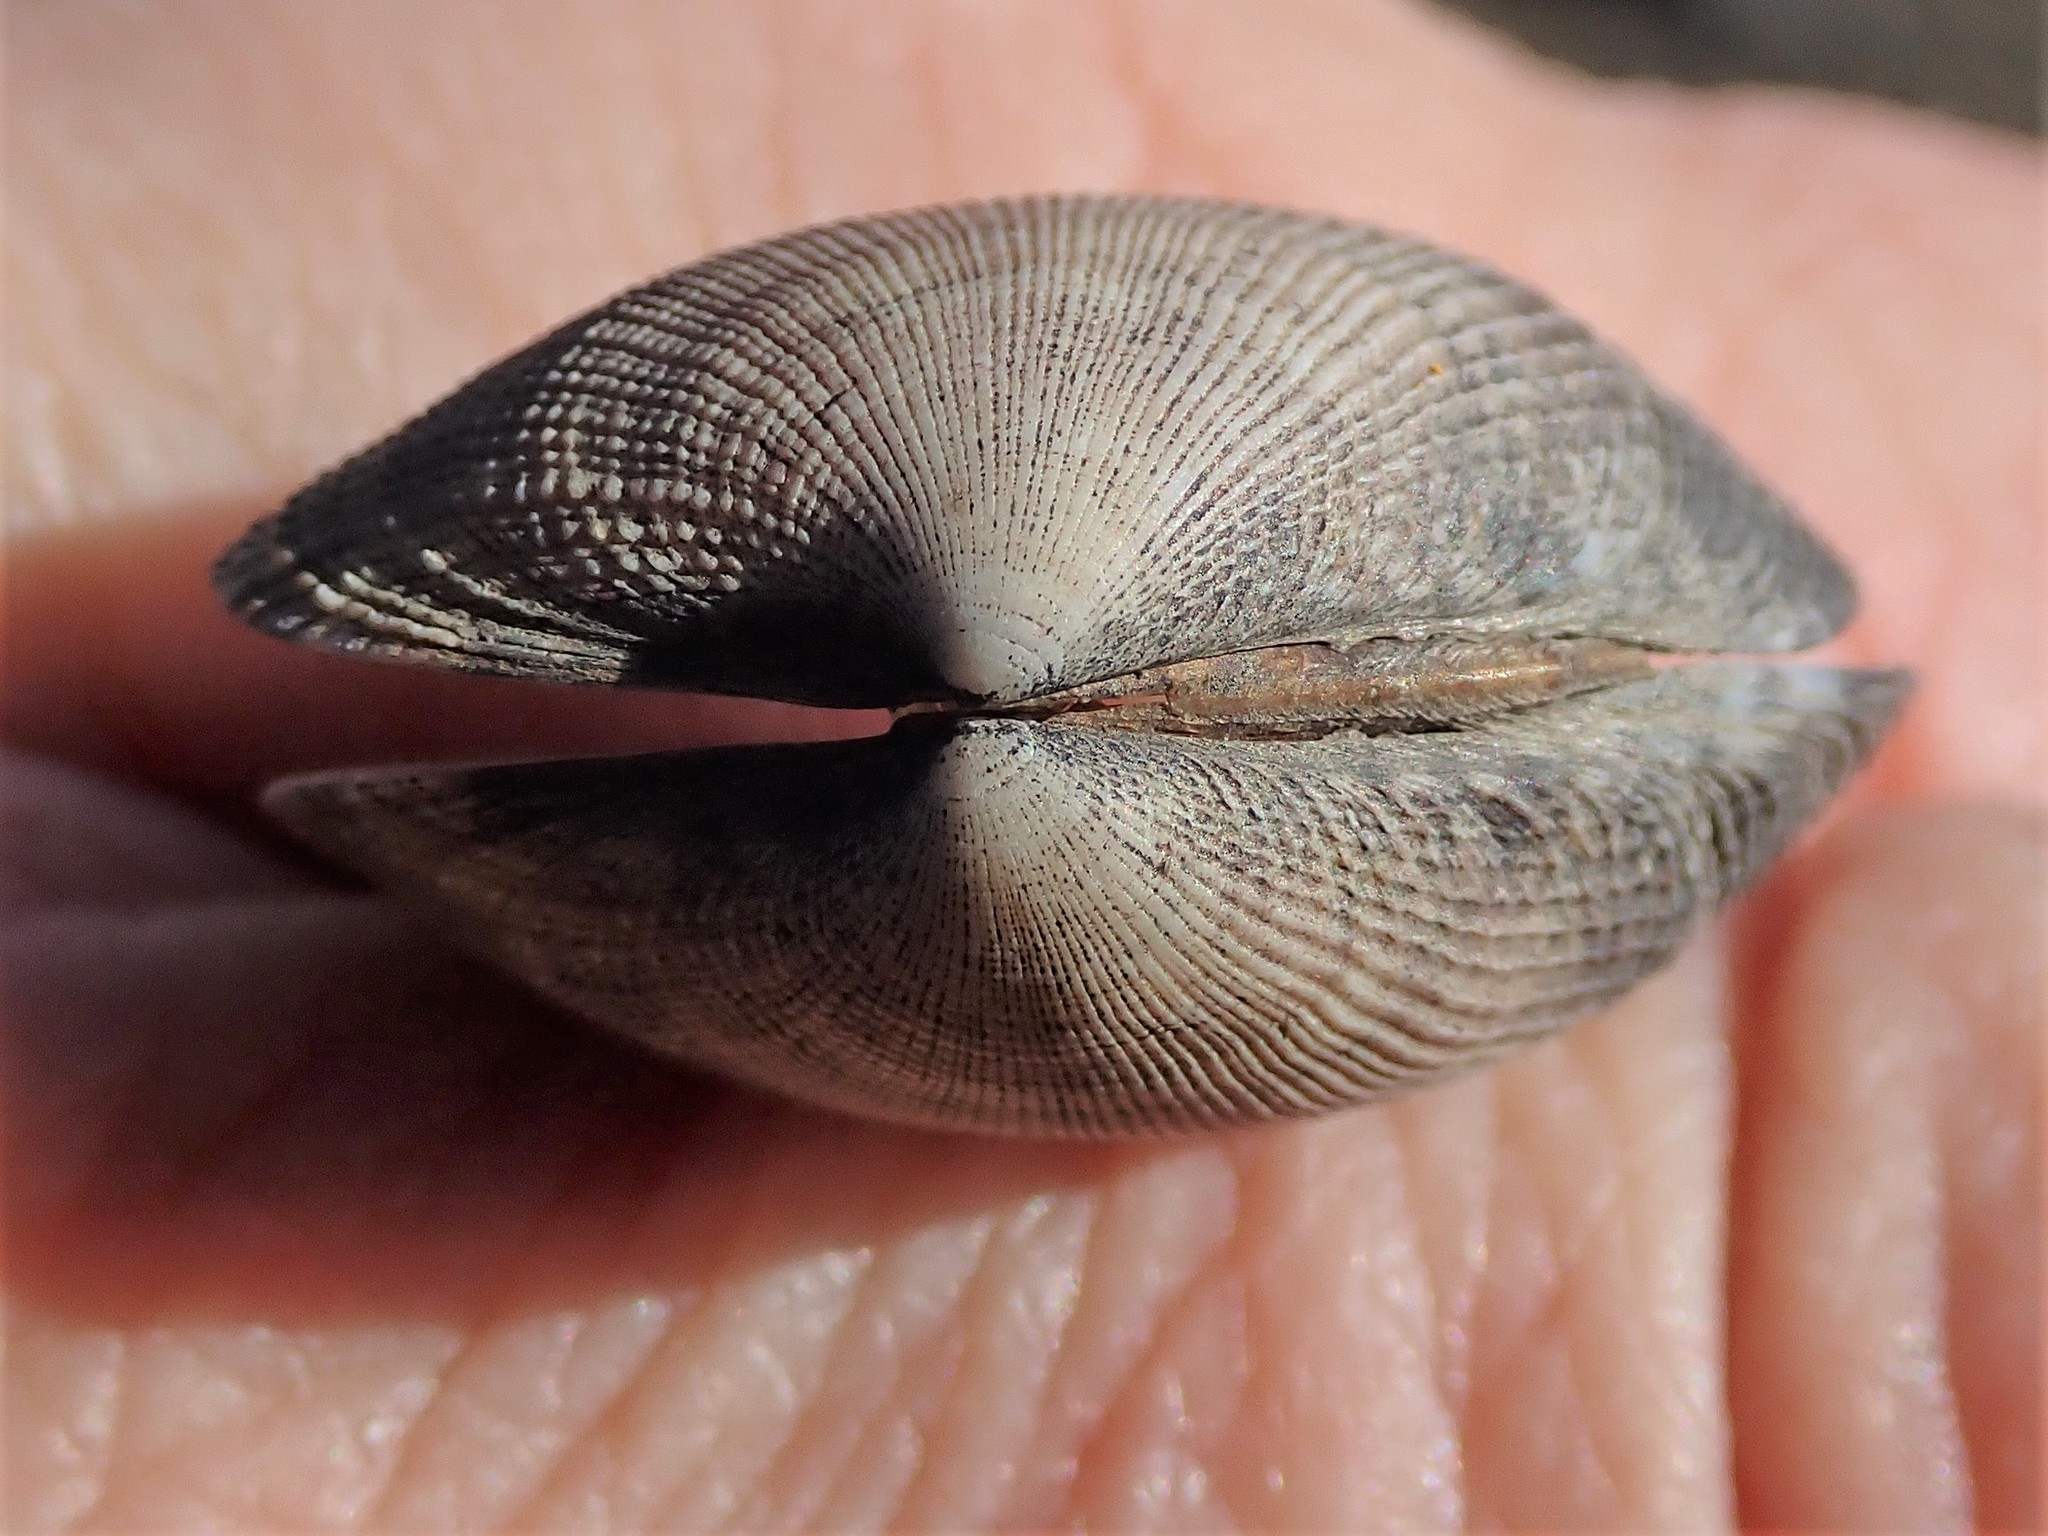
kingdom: Animalia
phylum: Mollusca
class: Bivalvia
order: Venerida
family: Veneridae
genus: Ruditapes
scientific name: Ruditapes philippinarum
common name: Manila clam
